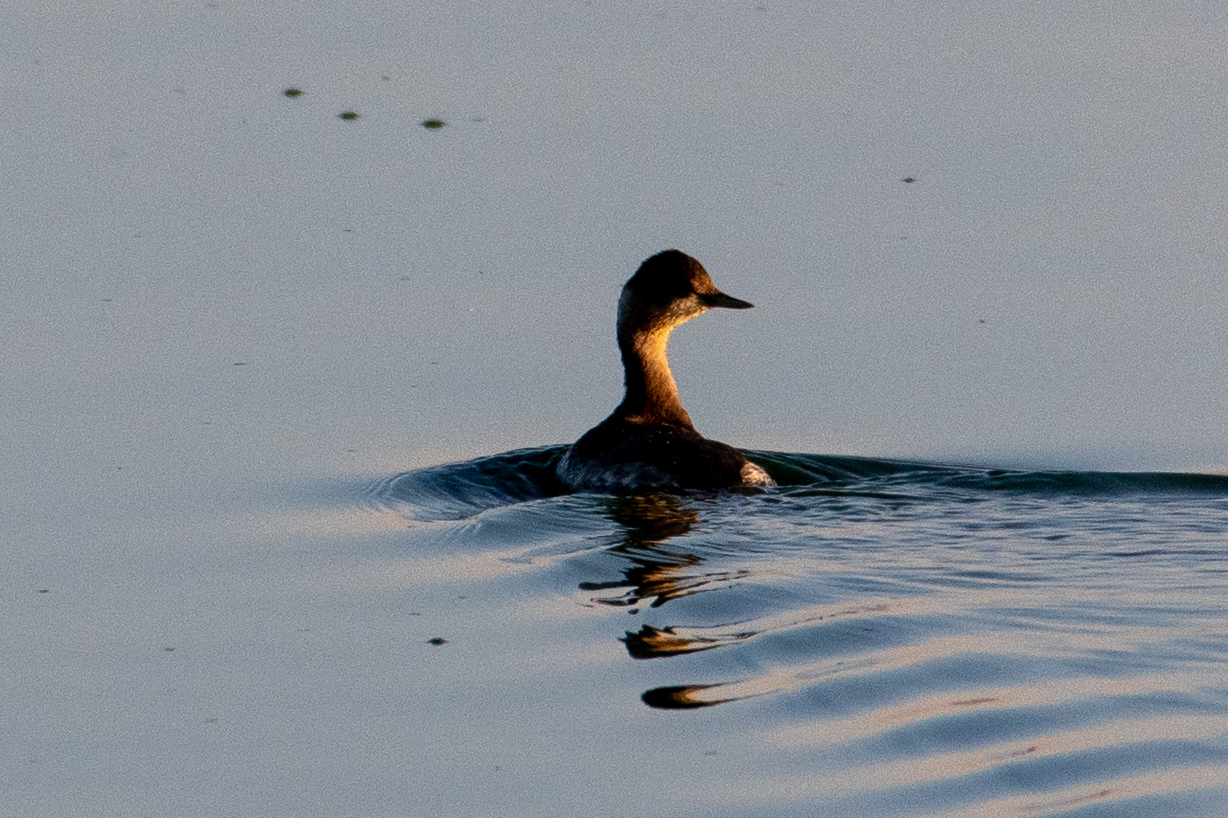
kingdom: Animalia
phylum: Chordata
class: Aves
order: Podicipediformes
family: Podicipedidae
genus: Podiceps
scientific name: Podiceps nigricollis
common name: Black-necked grebe
